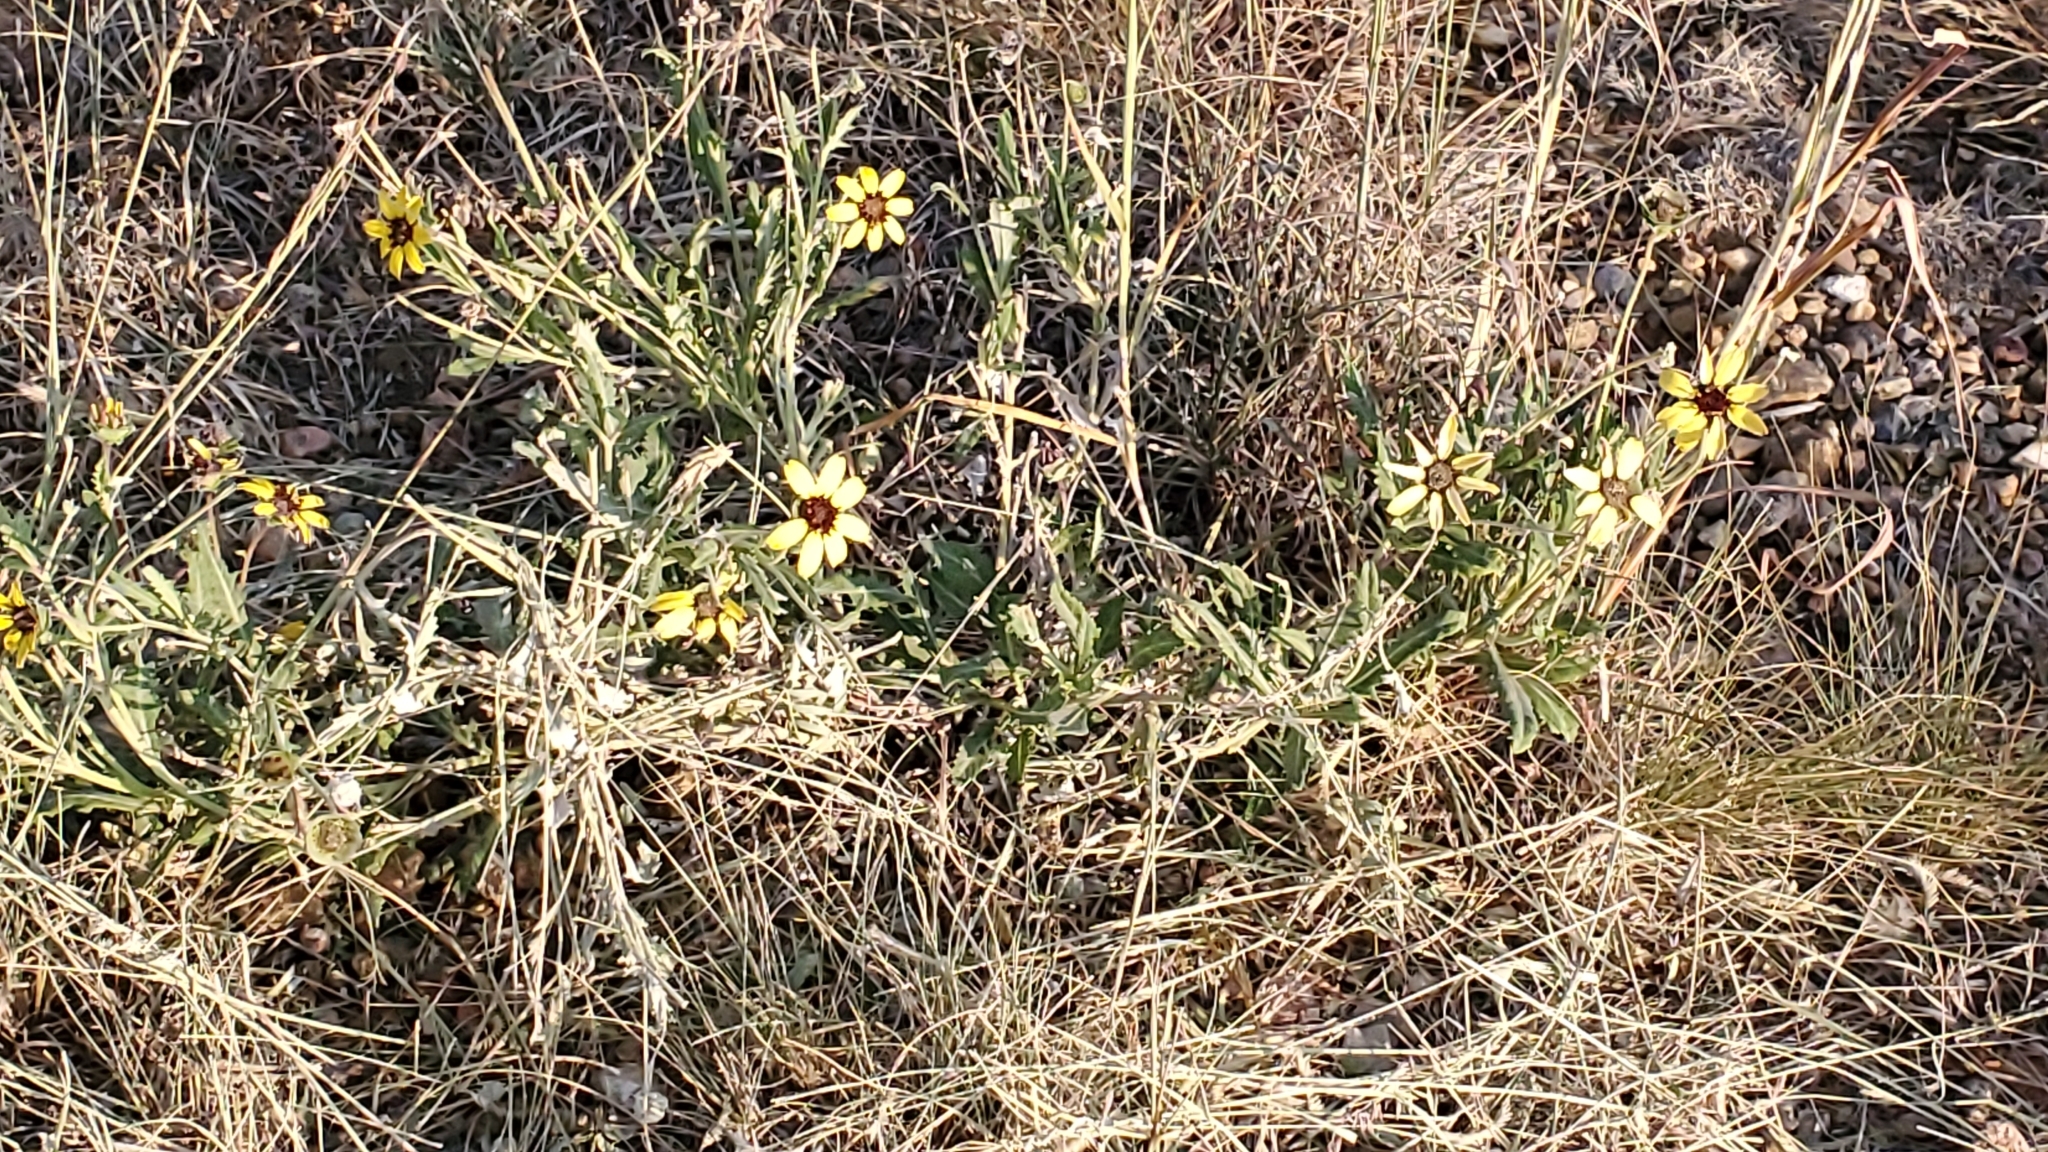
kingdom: Plantae
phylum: Tracheophyta
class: Magnoliopsida
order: Asterales
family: Asteraceae
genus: Berlandiera
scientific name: Berlandiera lyrata
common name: Chocolate-flower
